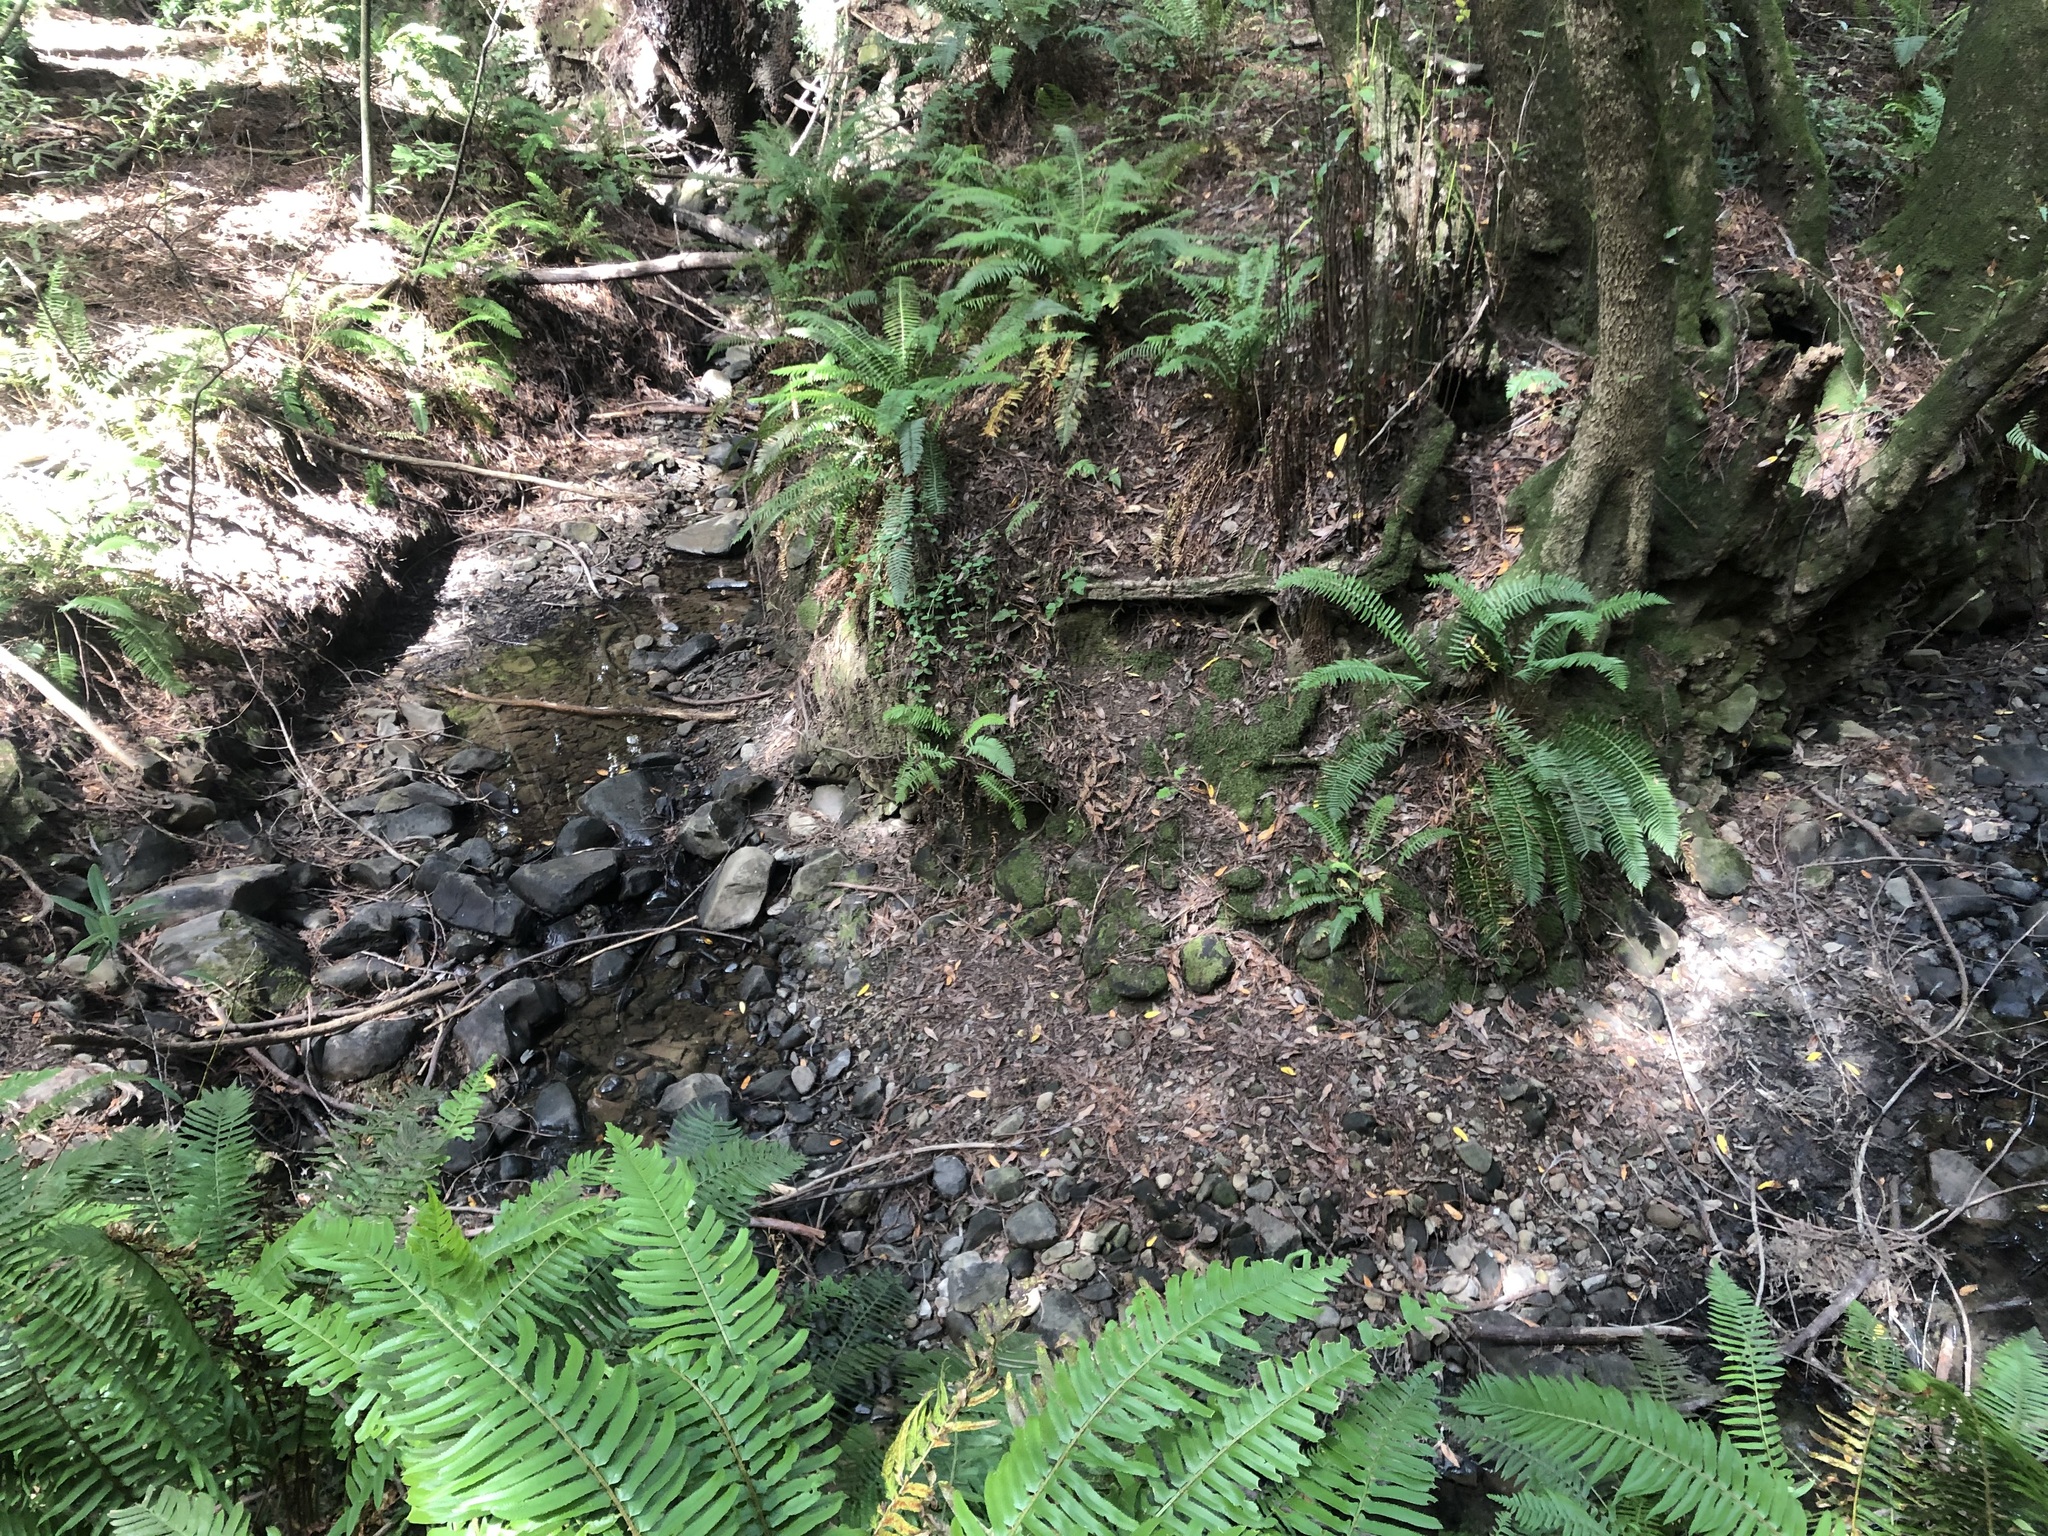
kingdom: Plantae
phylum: Tracheophyta
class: Polypodiopsida
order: Polypodiales
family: Dryopteridaceae
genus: Polystichum
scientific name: Polystichum munitum
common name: Western sword-fern
